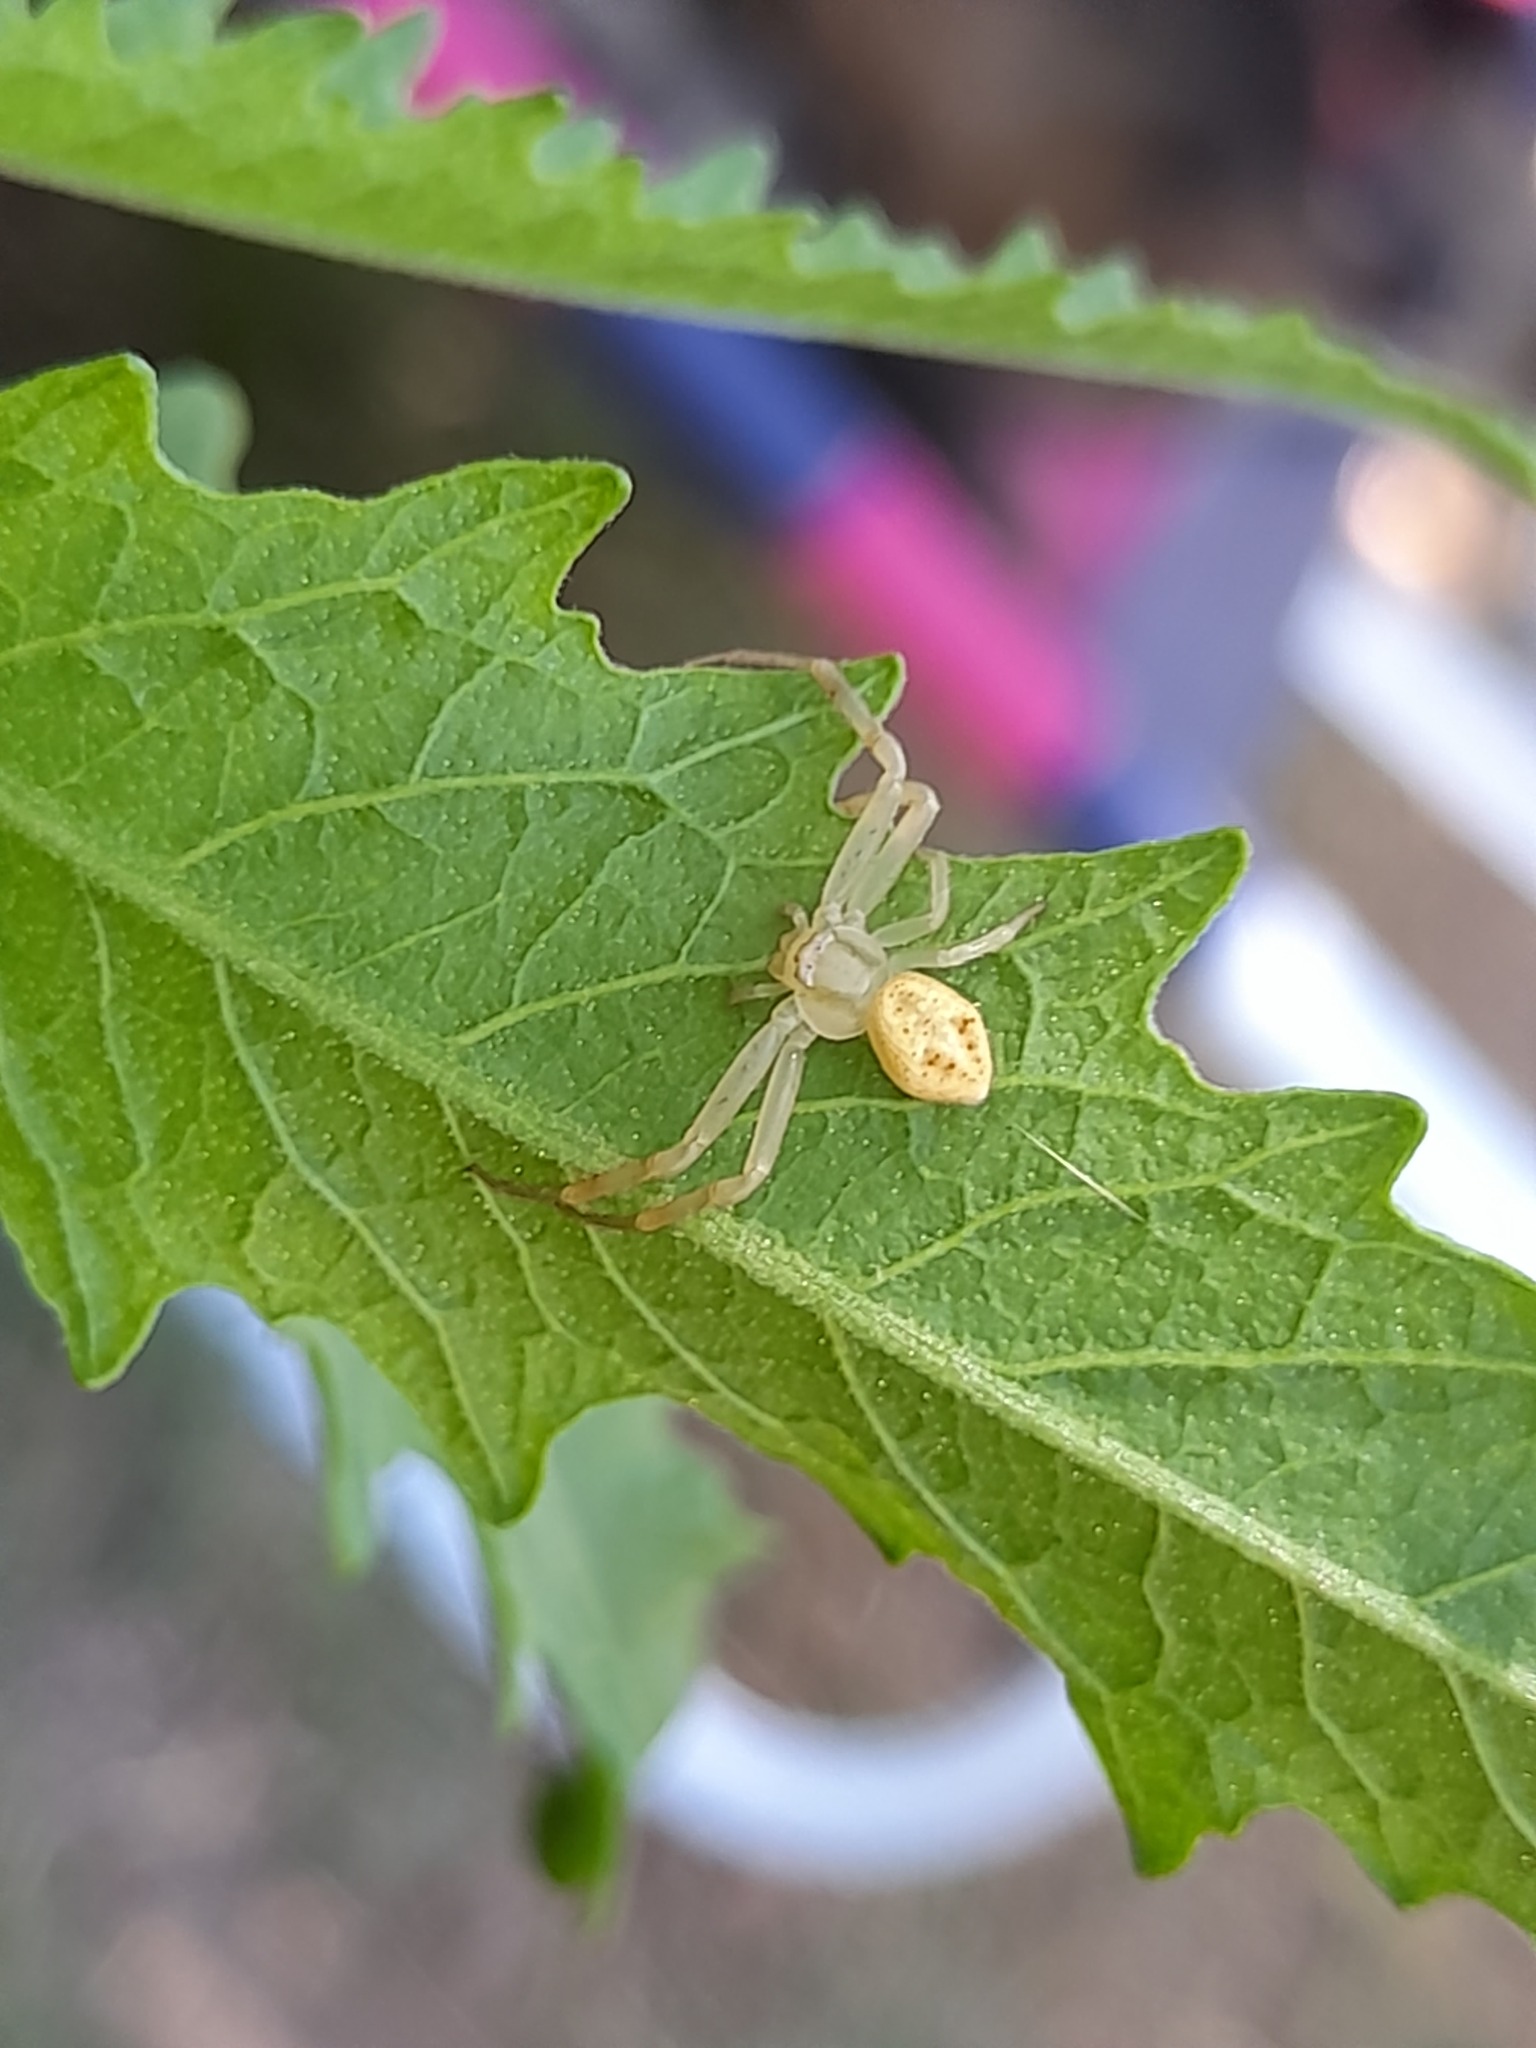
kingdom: Animalia
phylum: Arthropoda
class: Arachnida
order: Araneae
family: Thomisidae
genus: Misumenops
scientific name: Misumenops
